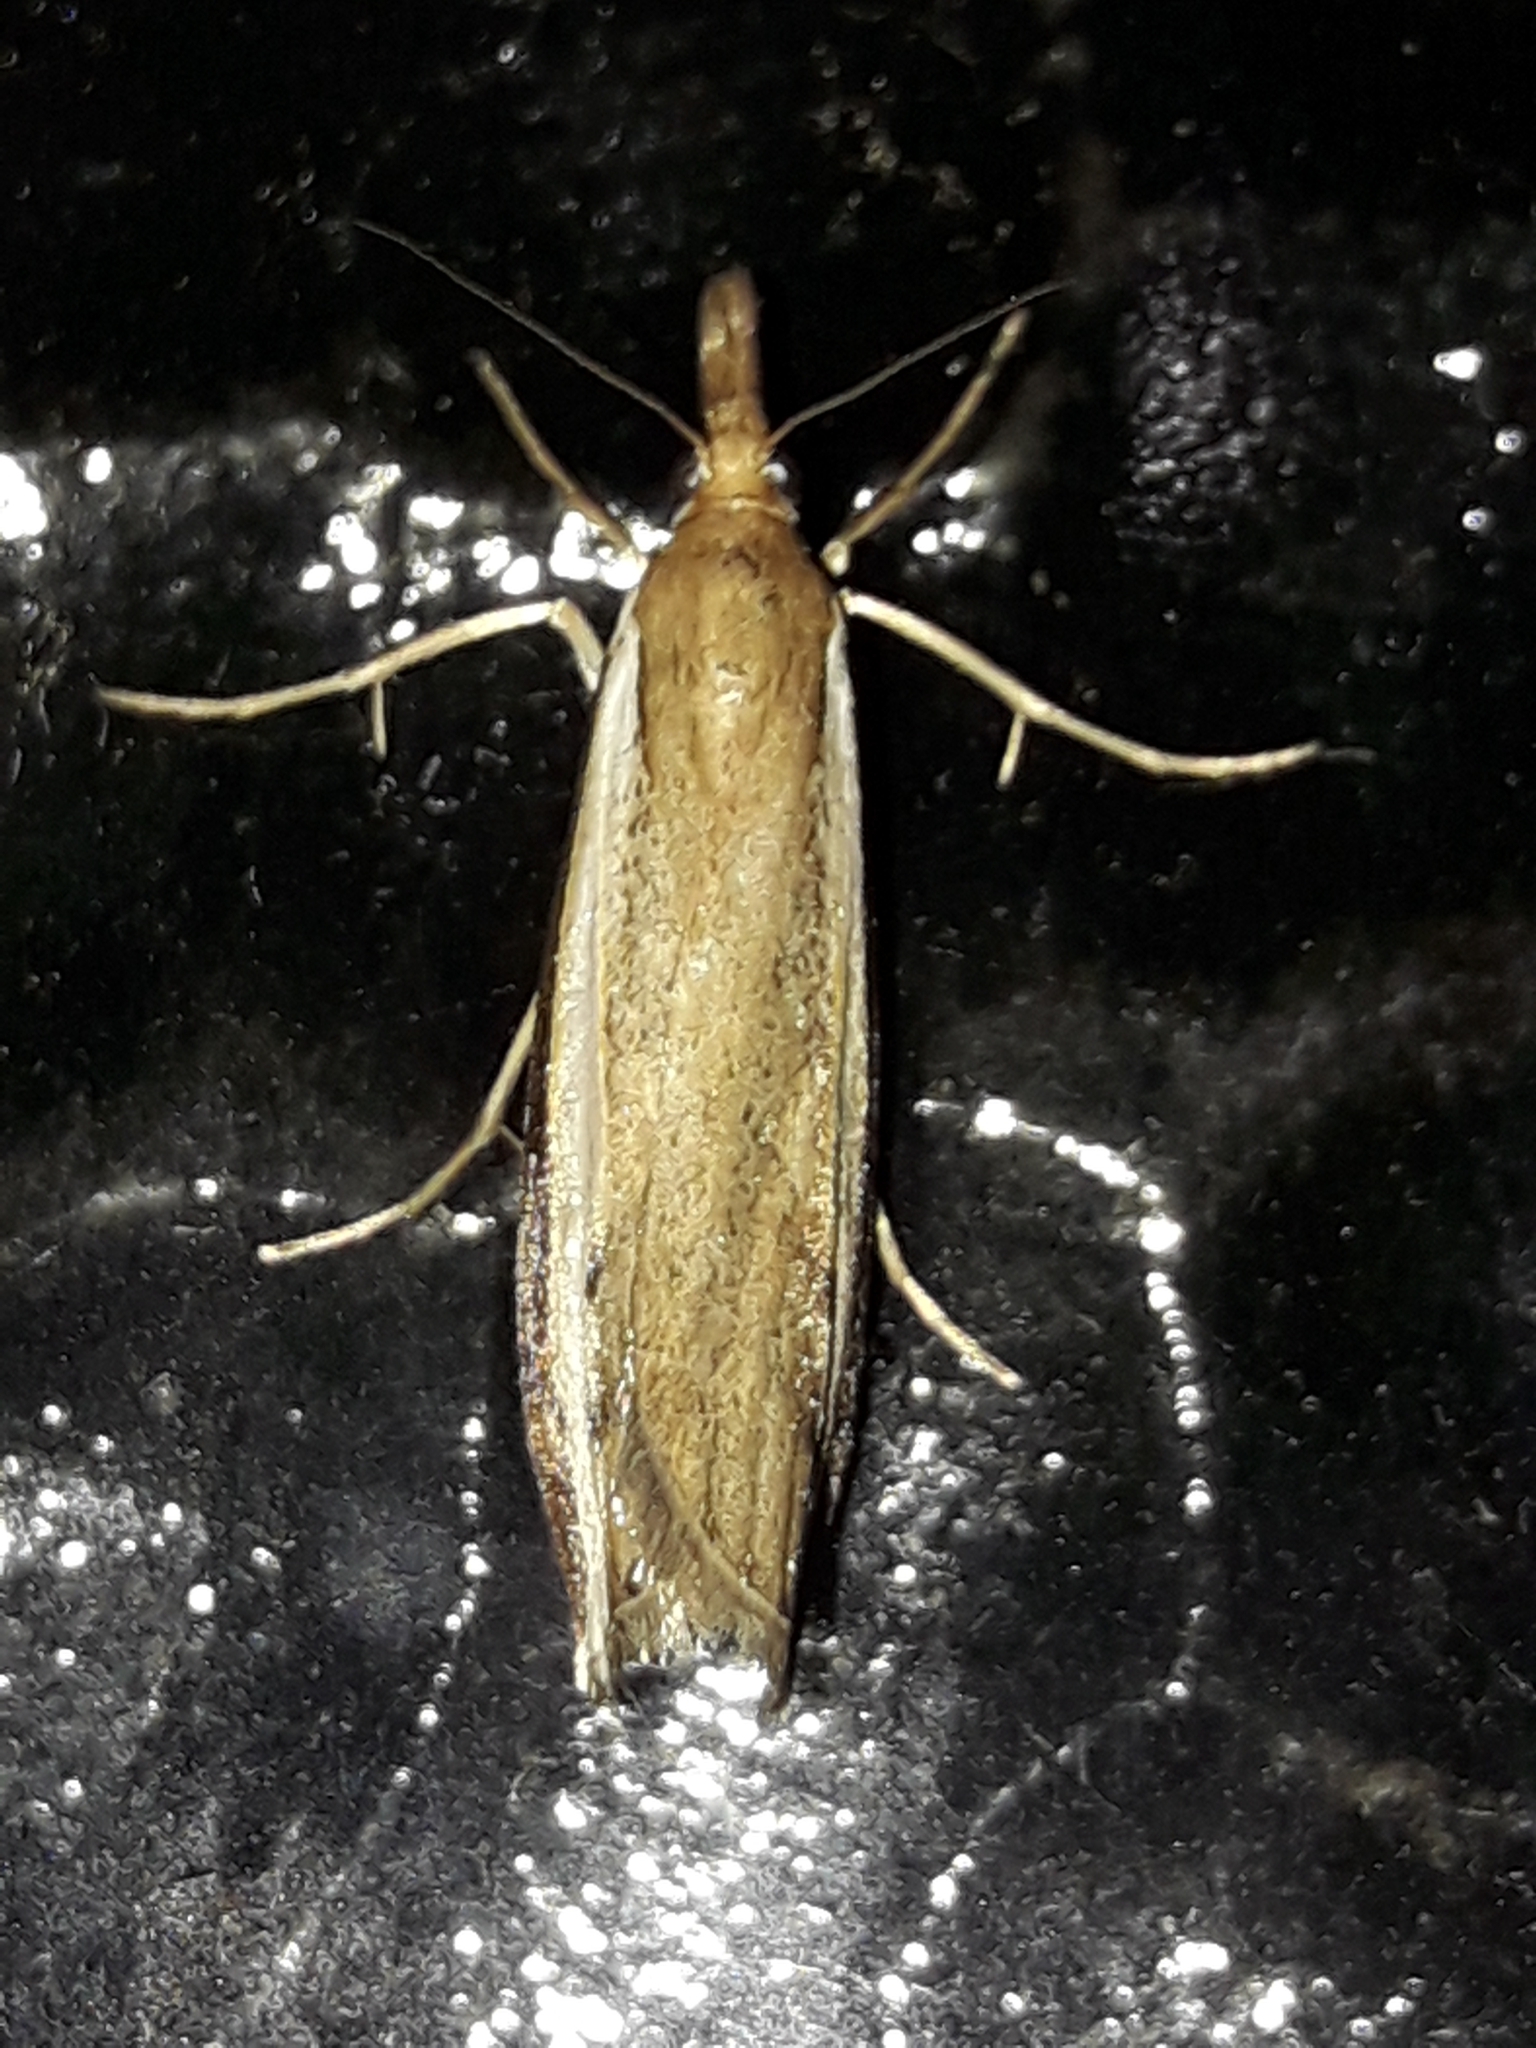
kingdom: Animalia
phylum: Arthropoda
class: Insecta
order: Lepidoptera
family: Crambidae
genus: Orocrambus
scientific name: Orocrambus flexuosellus
